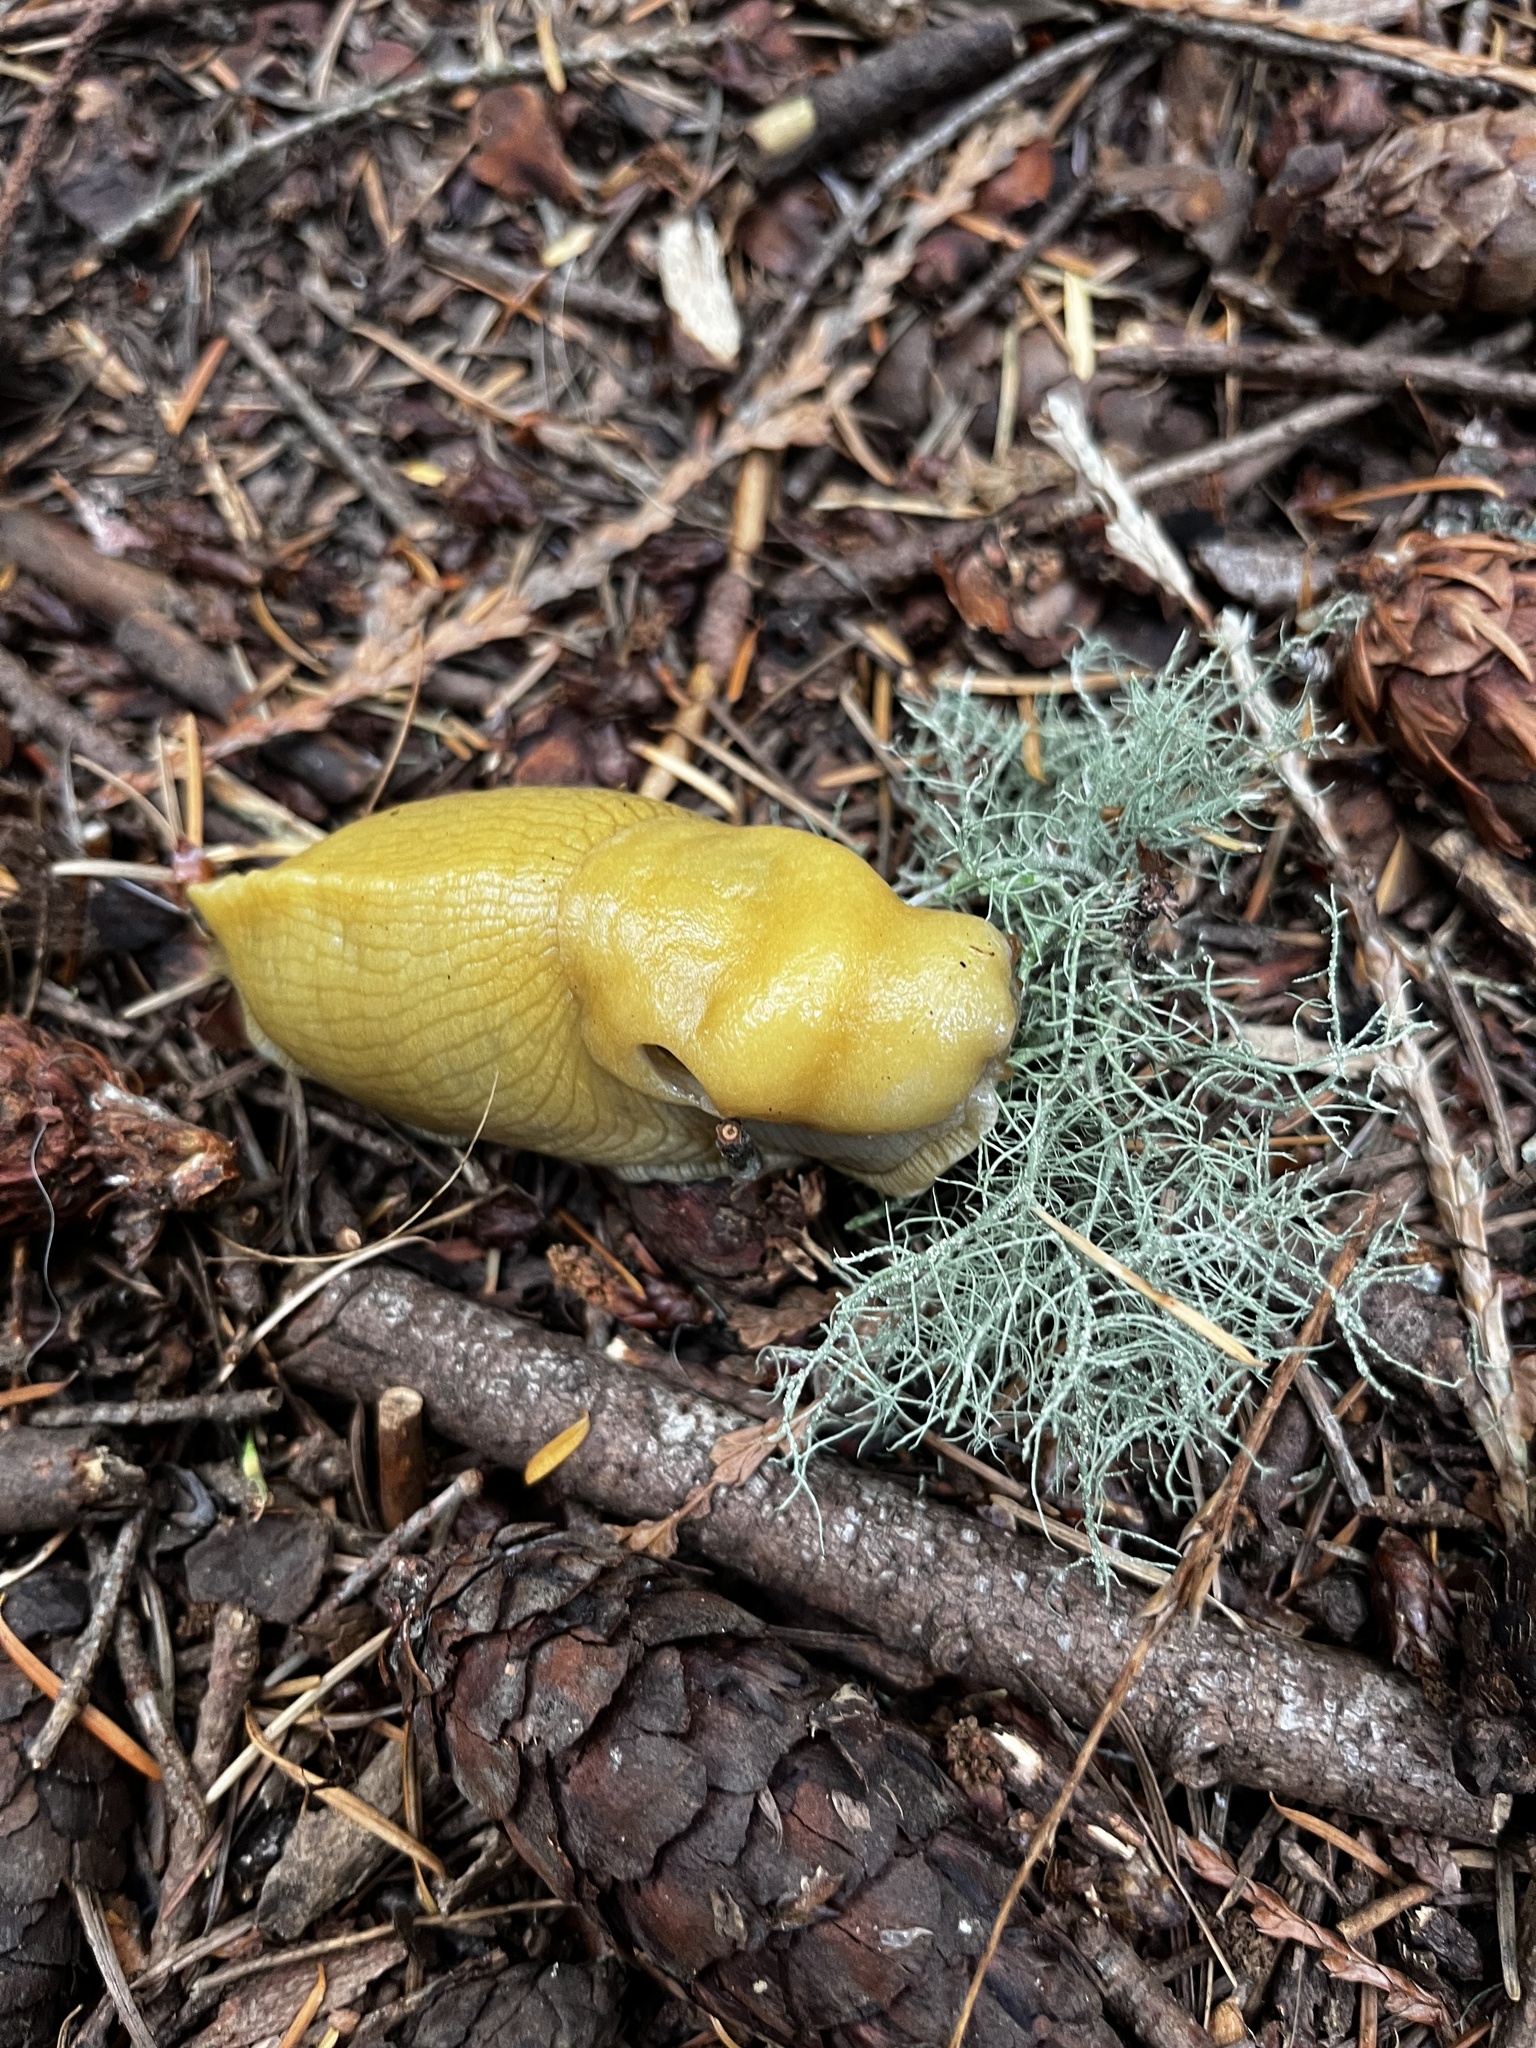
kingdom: Animalia
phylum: Mollusca
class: Gastropoda
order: Stylommatophora
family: Ariolimacidae
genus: Ariolimax
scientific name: Ariolimax columbianus
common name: Pacific banana slug
